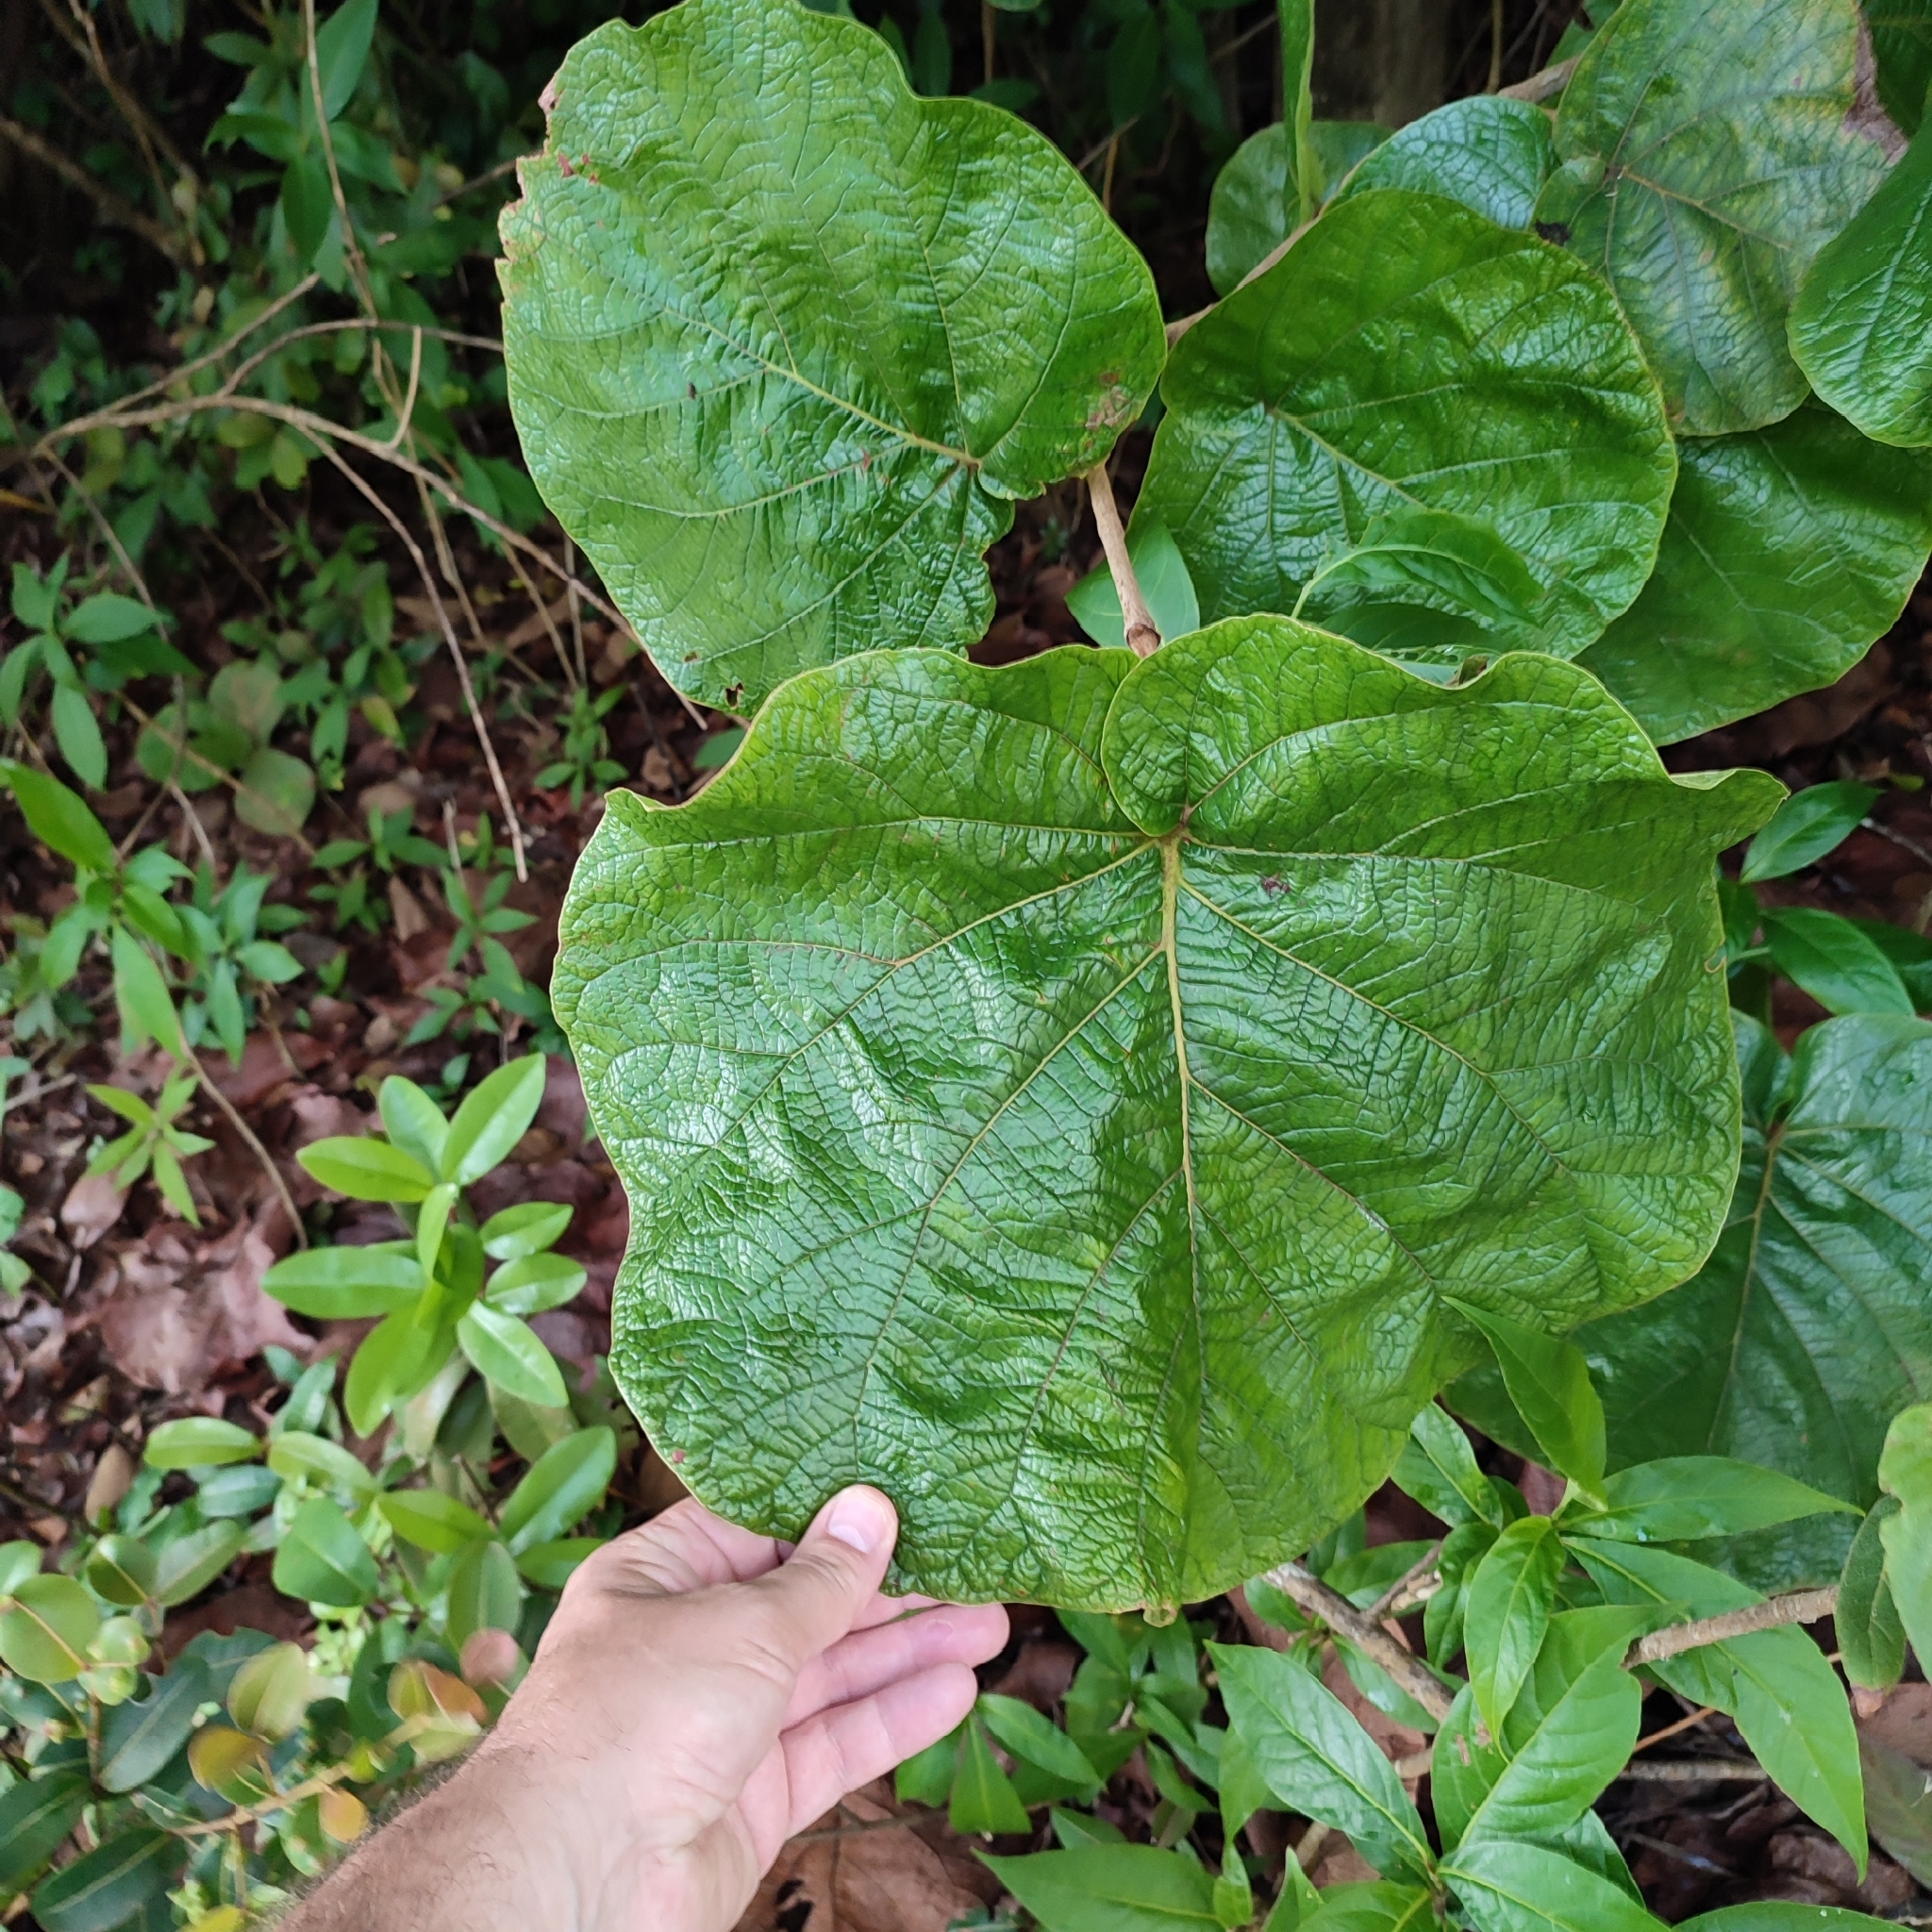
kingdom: Plantae
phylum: Tracheophyta
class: Magnoliopsida
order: Caryophyllales
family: Polygonaceae
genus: Coccoloba
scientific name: Coccoloba pubescens
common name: Mountain-grape
